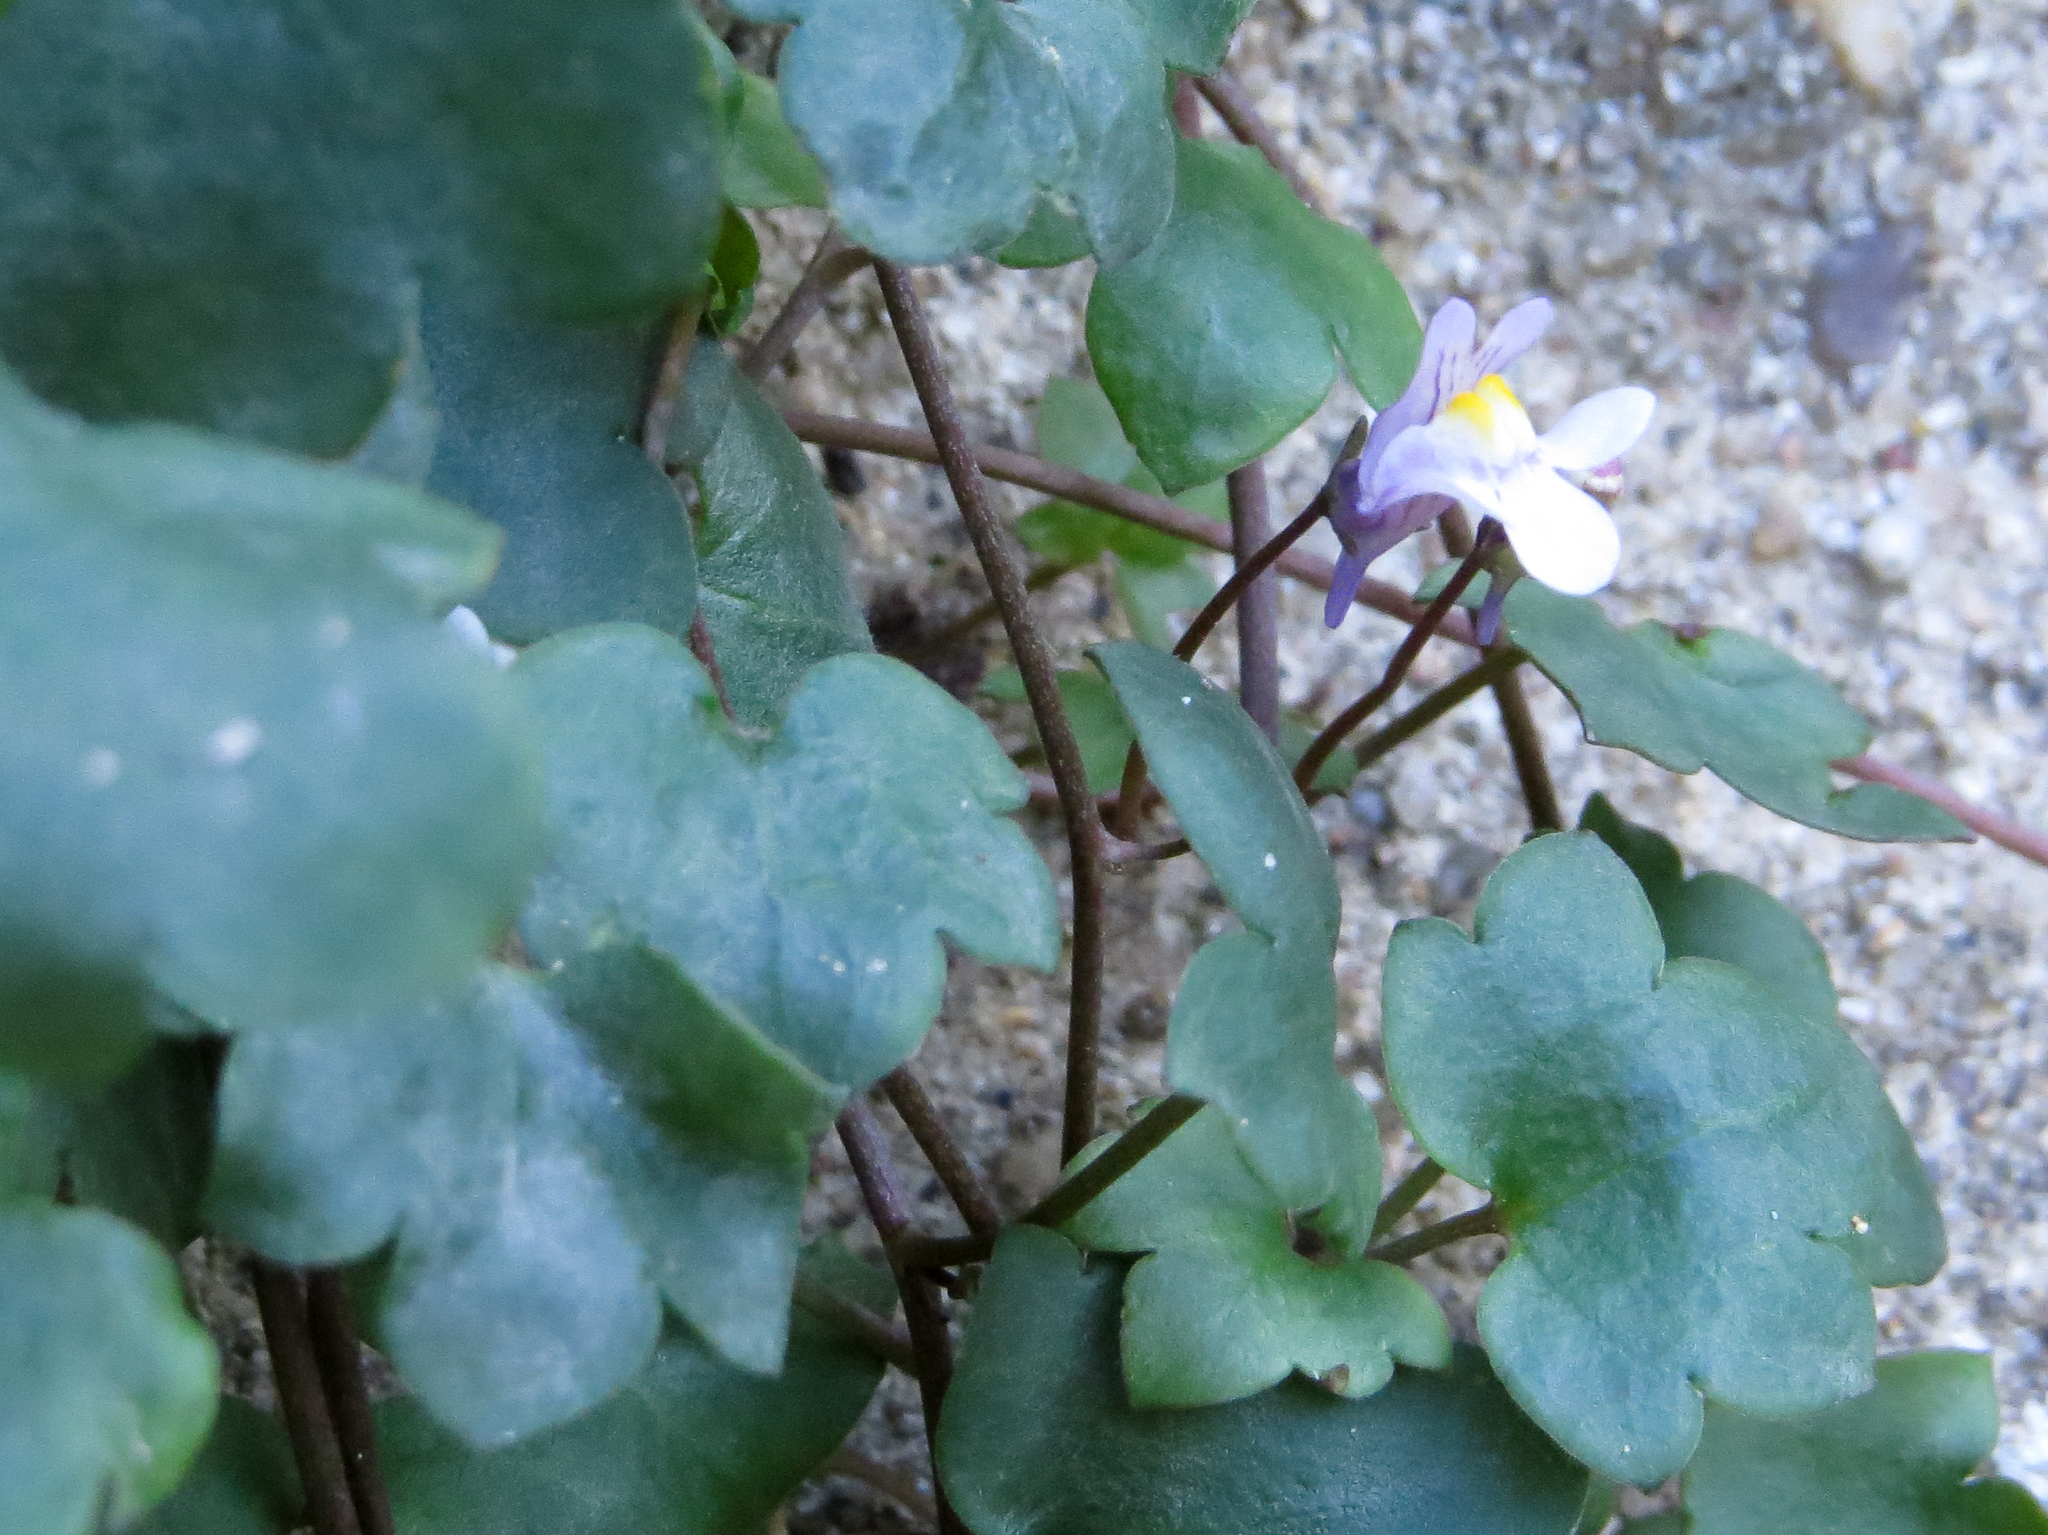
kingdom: Plantae
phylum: Tracheophyta
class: Magnoliopsida
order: Lamiales
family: Plantaginaceae
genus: Cymbalaria
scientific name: Cymbalaria muralis
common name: Ivy-leaved toadflax
